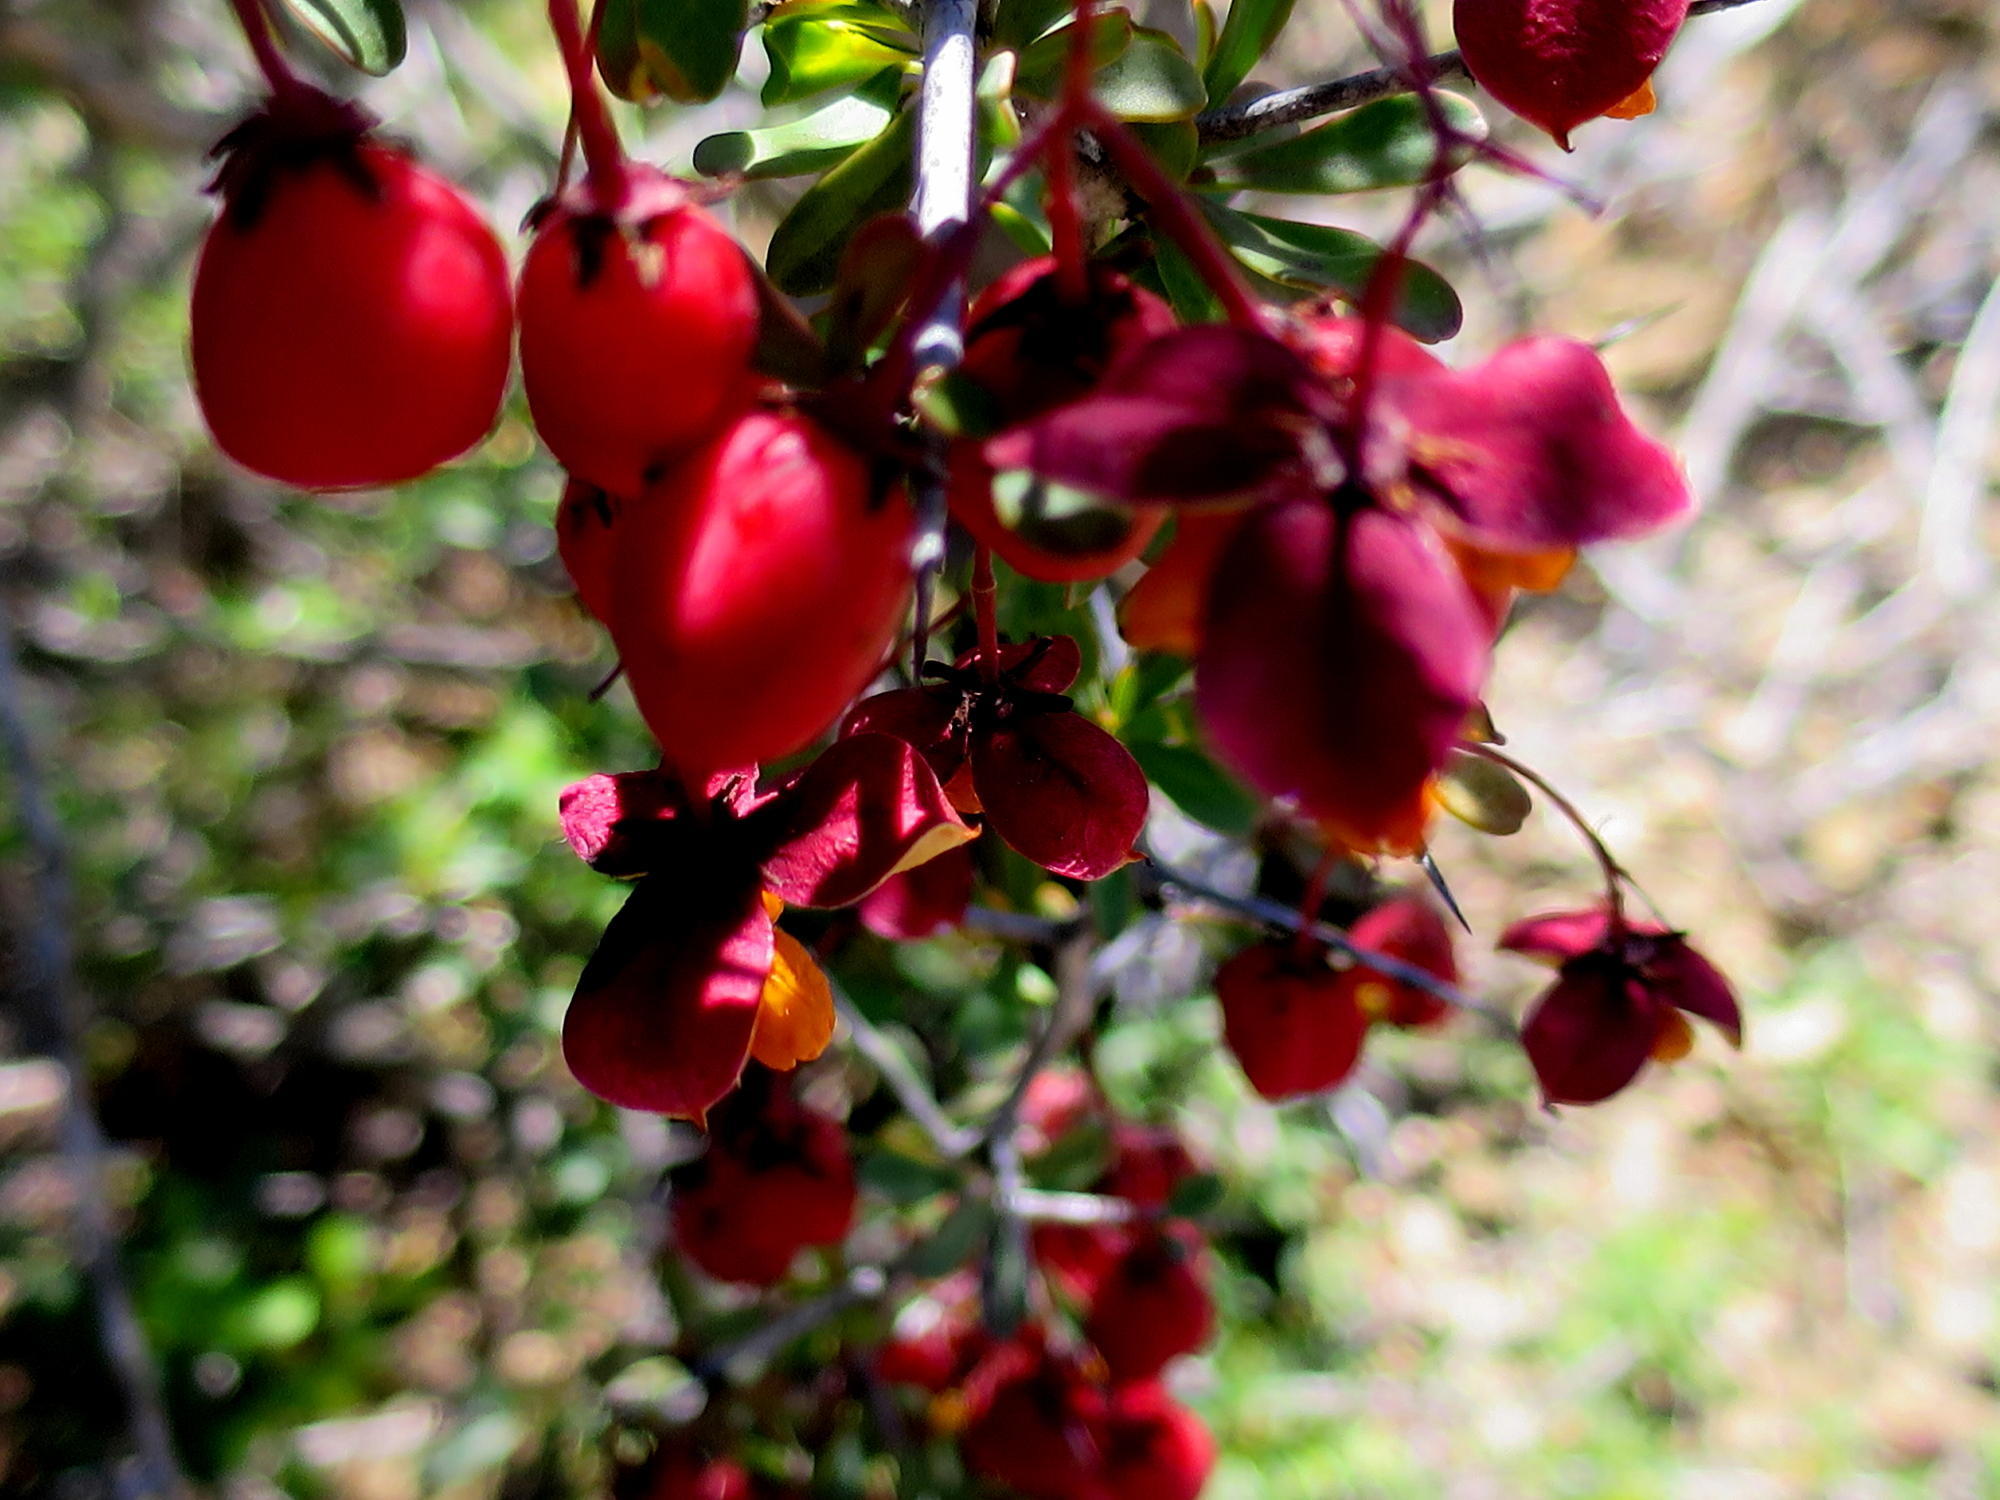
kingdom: Plantae
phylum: Tracheophyta
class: Magnoliopsida
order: Celastrales
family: Celastraceae
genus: Putterlickia
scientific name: Putterlickia pyracantha
